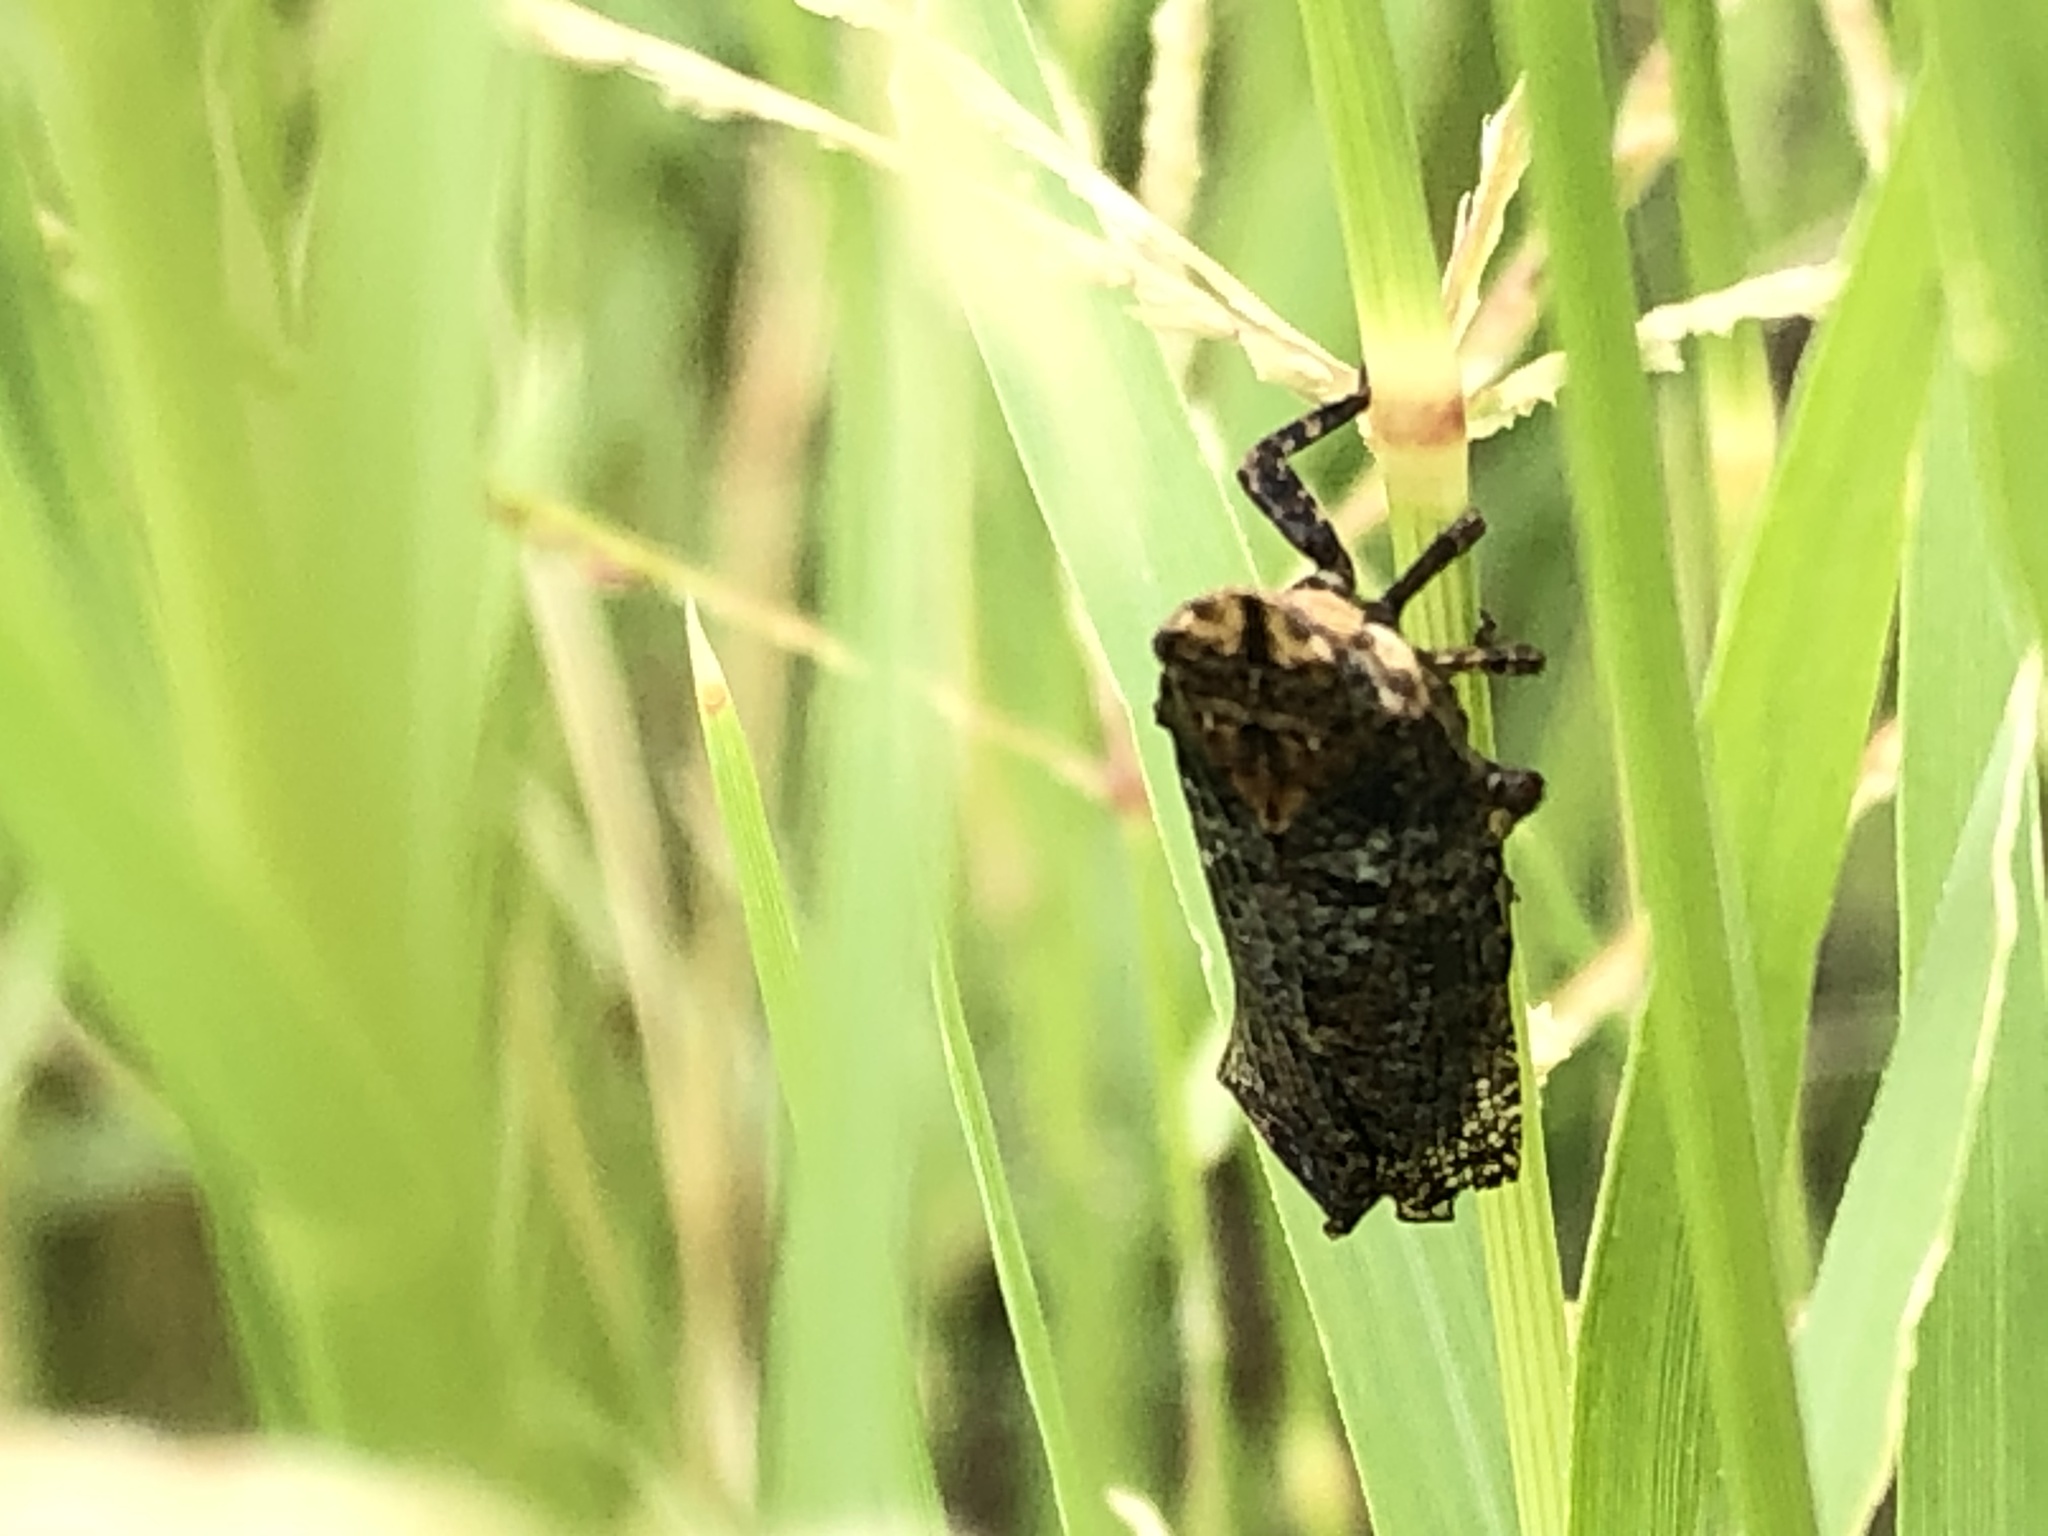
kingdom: Animalia
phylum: Arthropoda
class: Insecta
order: Hemiptera
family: Fulgoridae
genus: Cyrpoptus
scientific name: Cyrpoptus vanduzeei
